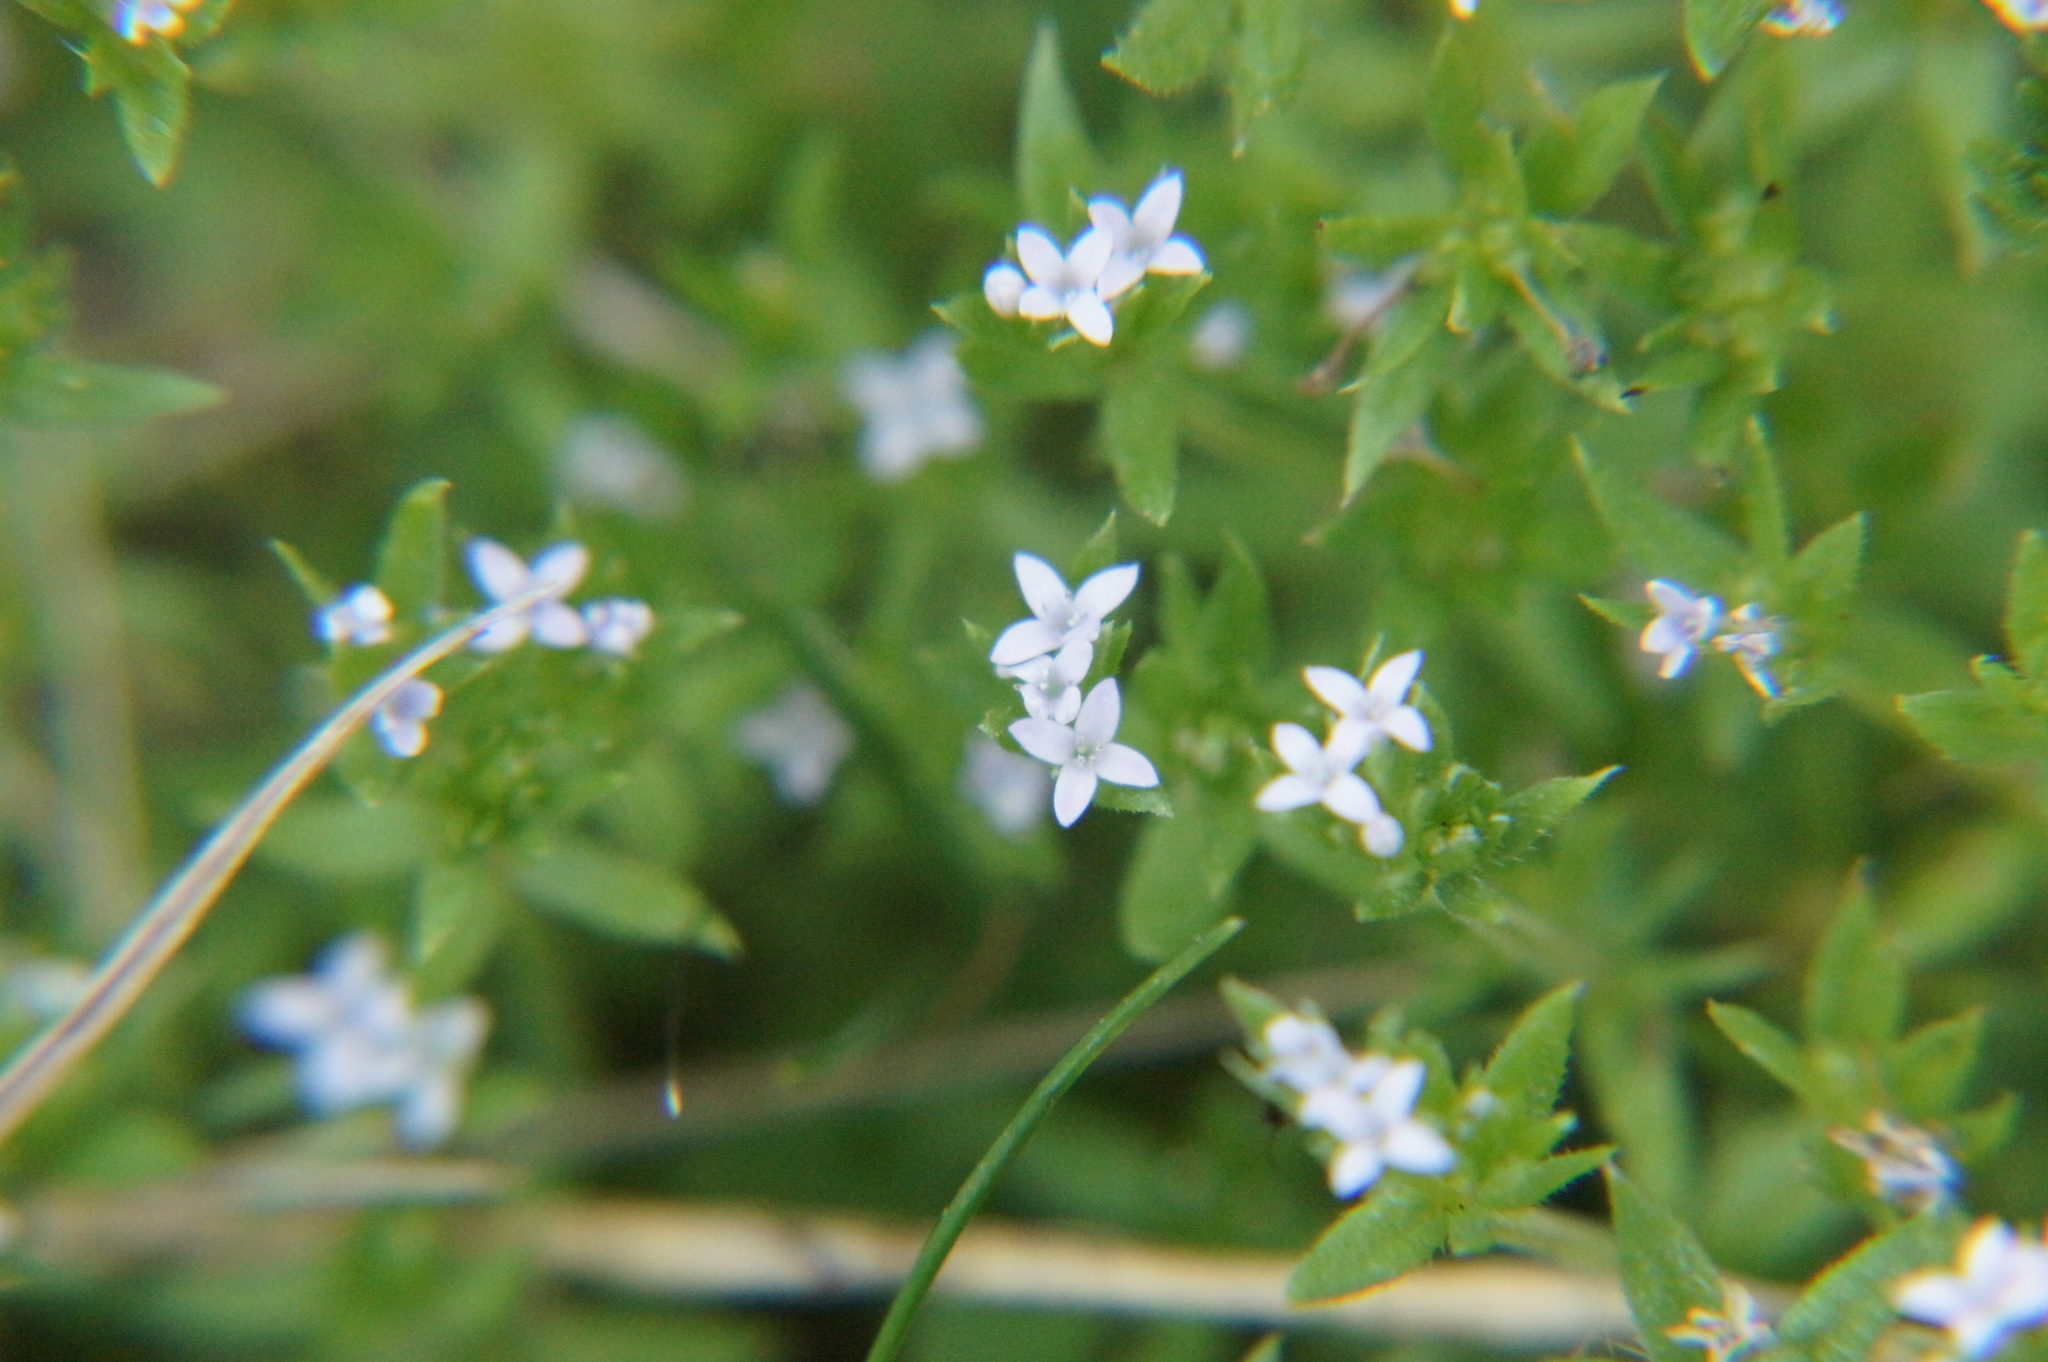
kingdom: Plantae
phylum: Tracheophyta
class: Magnoliopsida
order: Gentianales
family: Rubiaceae
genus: Sherardia
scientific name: Sherardia arvensis
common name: Field madder
